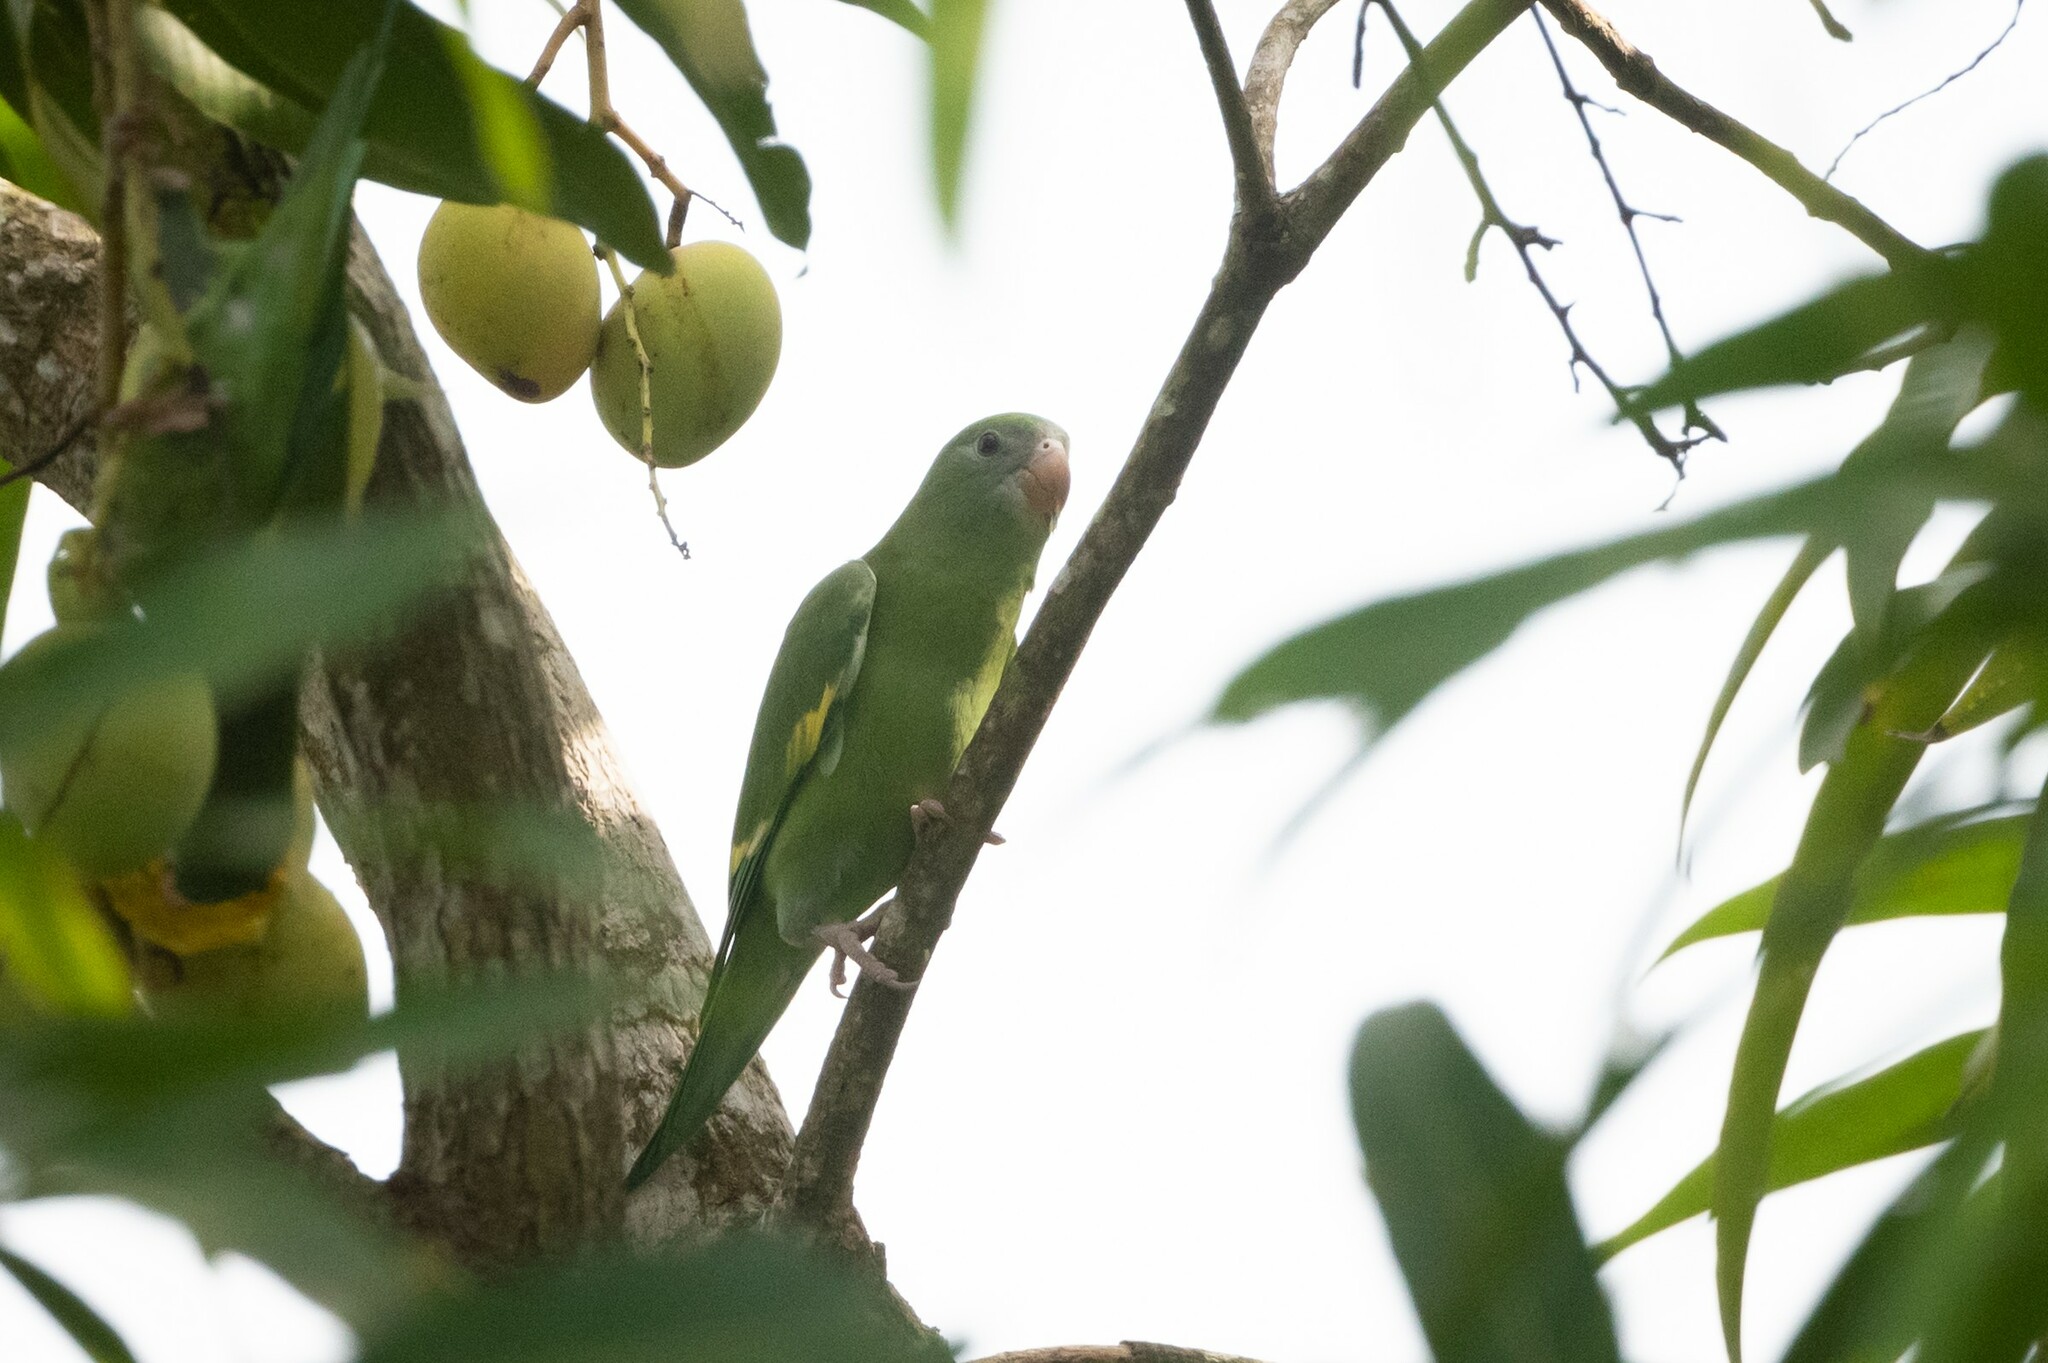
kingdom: Animalia
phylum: Chordata
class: Aves
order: Psittaciformes
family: Psittacidae
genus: Brotogeris
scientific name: Brotogeris versicolurus
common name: White-winged parakeet
